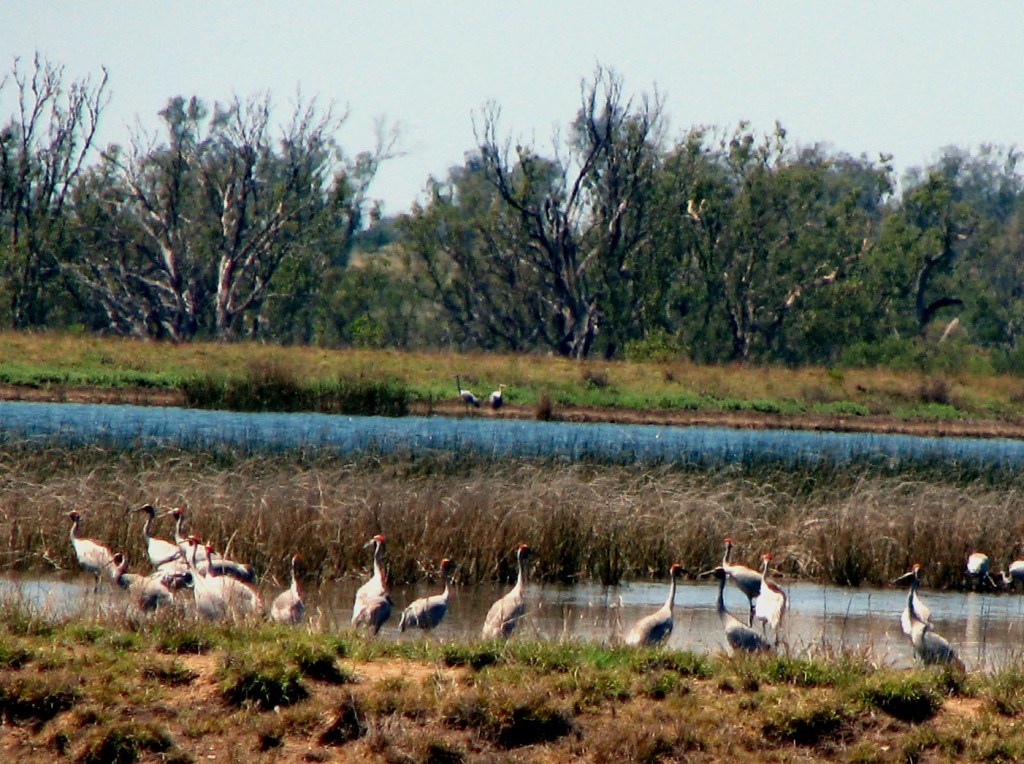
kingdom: Animalia
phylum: Chordata
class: Aves
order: Gruiformes
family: Gruidae
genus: Grus
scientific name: Grus rubicunda
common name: Brolga
